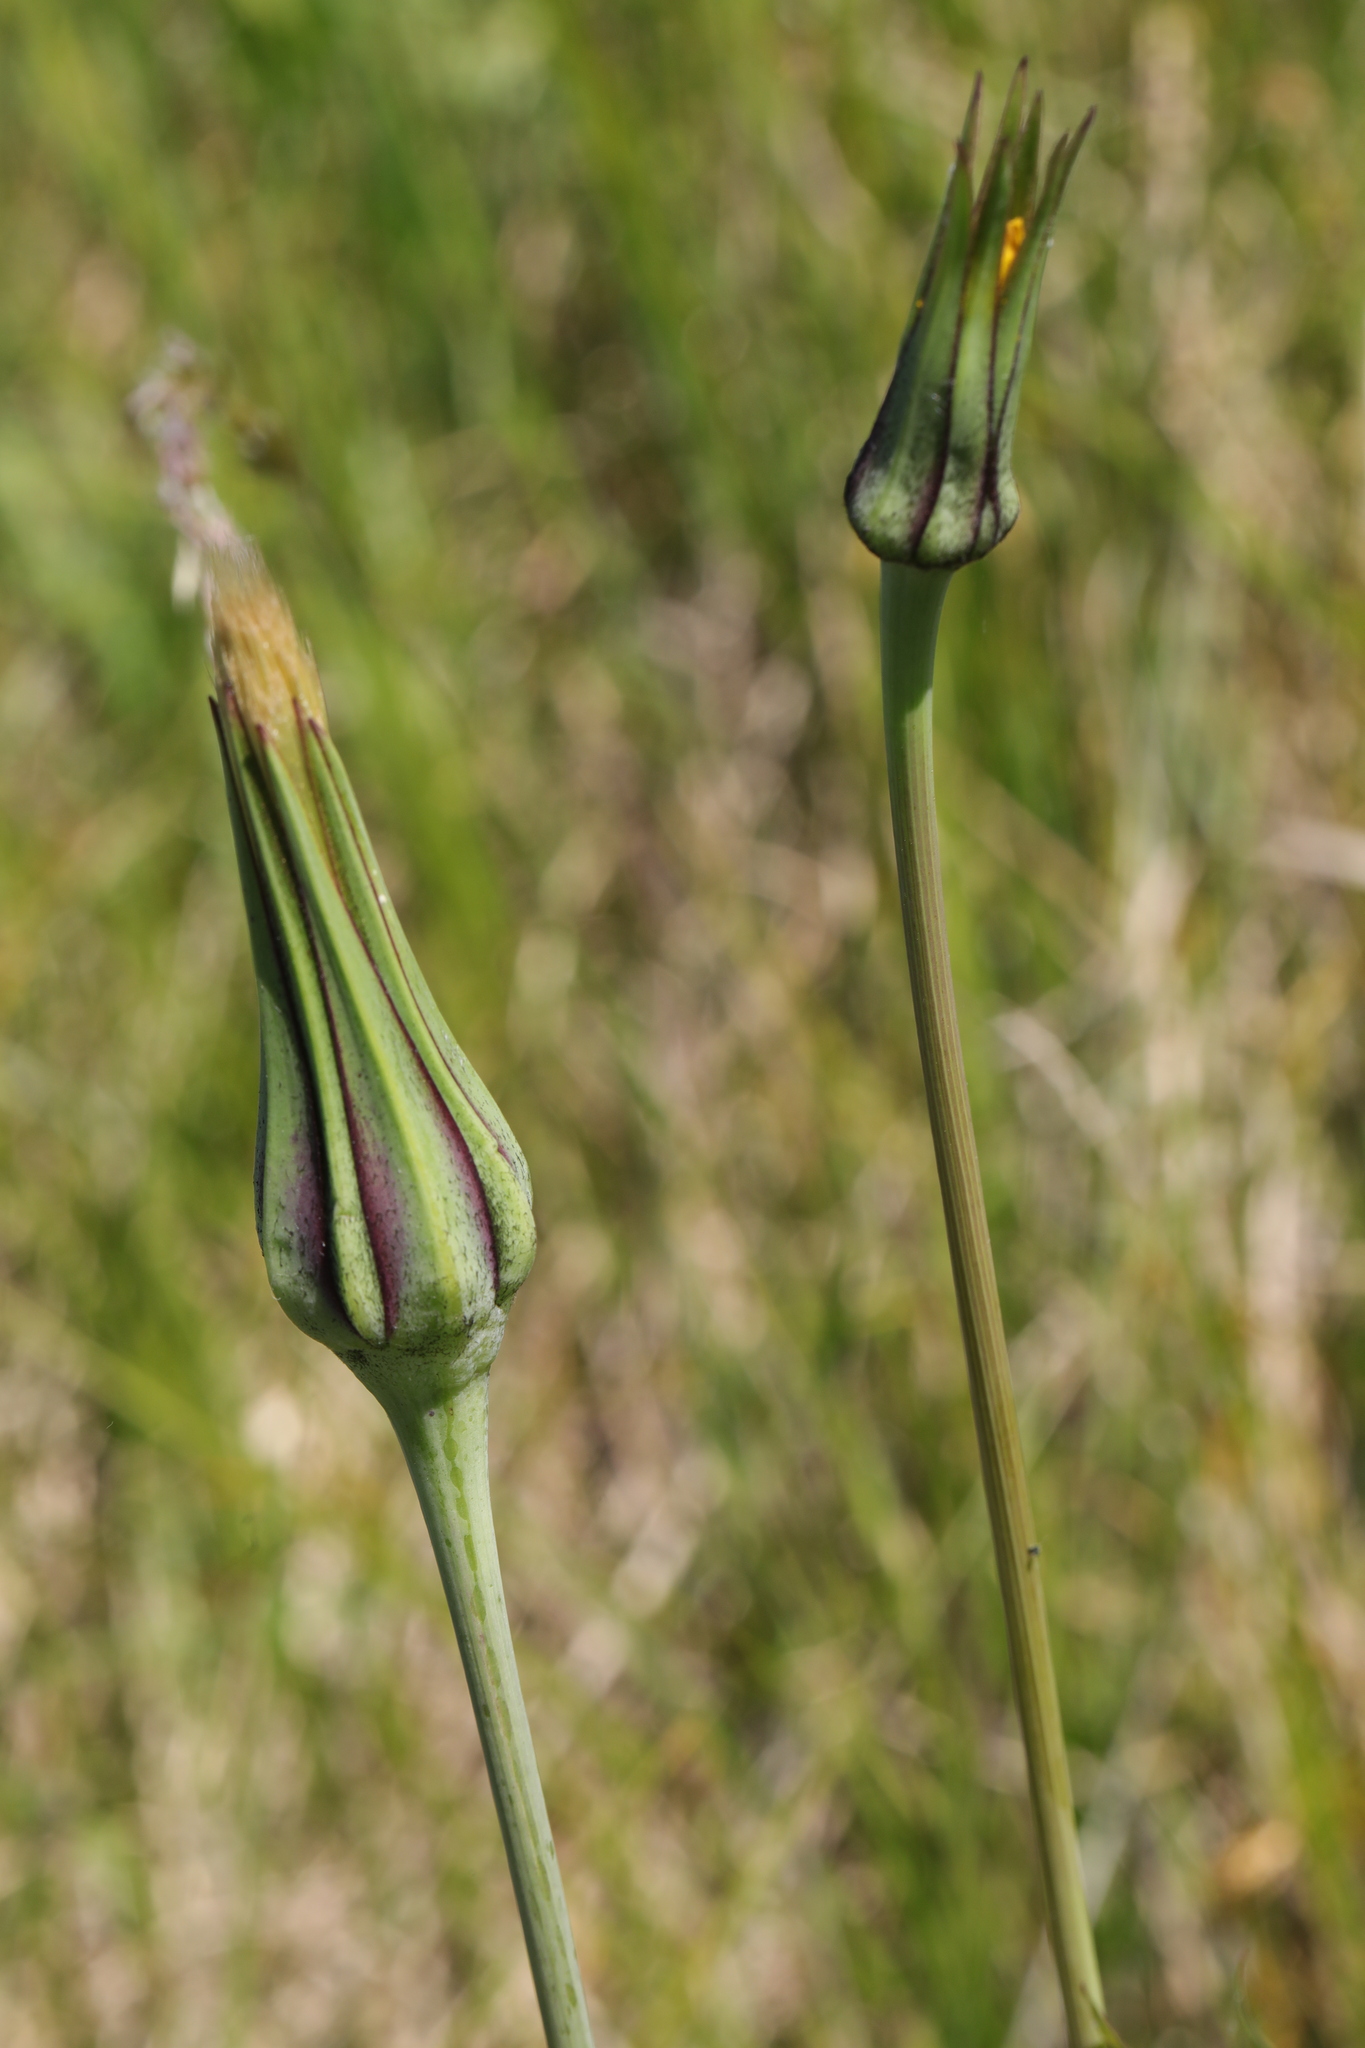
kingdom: Plantae
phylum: Tracheophyta
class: Magnoliopsida
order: Asterales
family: Asteraceae
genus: Tragopogon
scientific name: Tragopogon pratensis
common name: Goat's-beard
